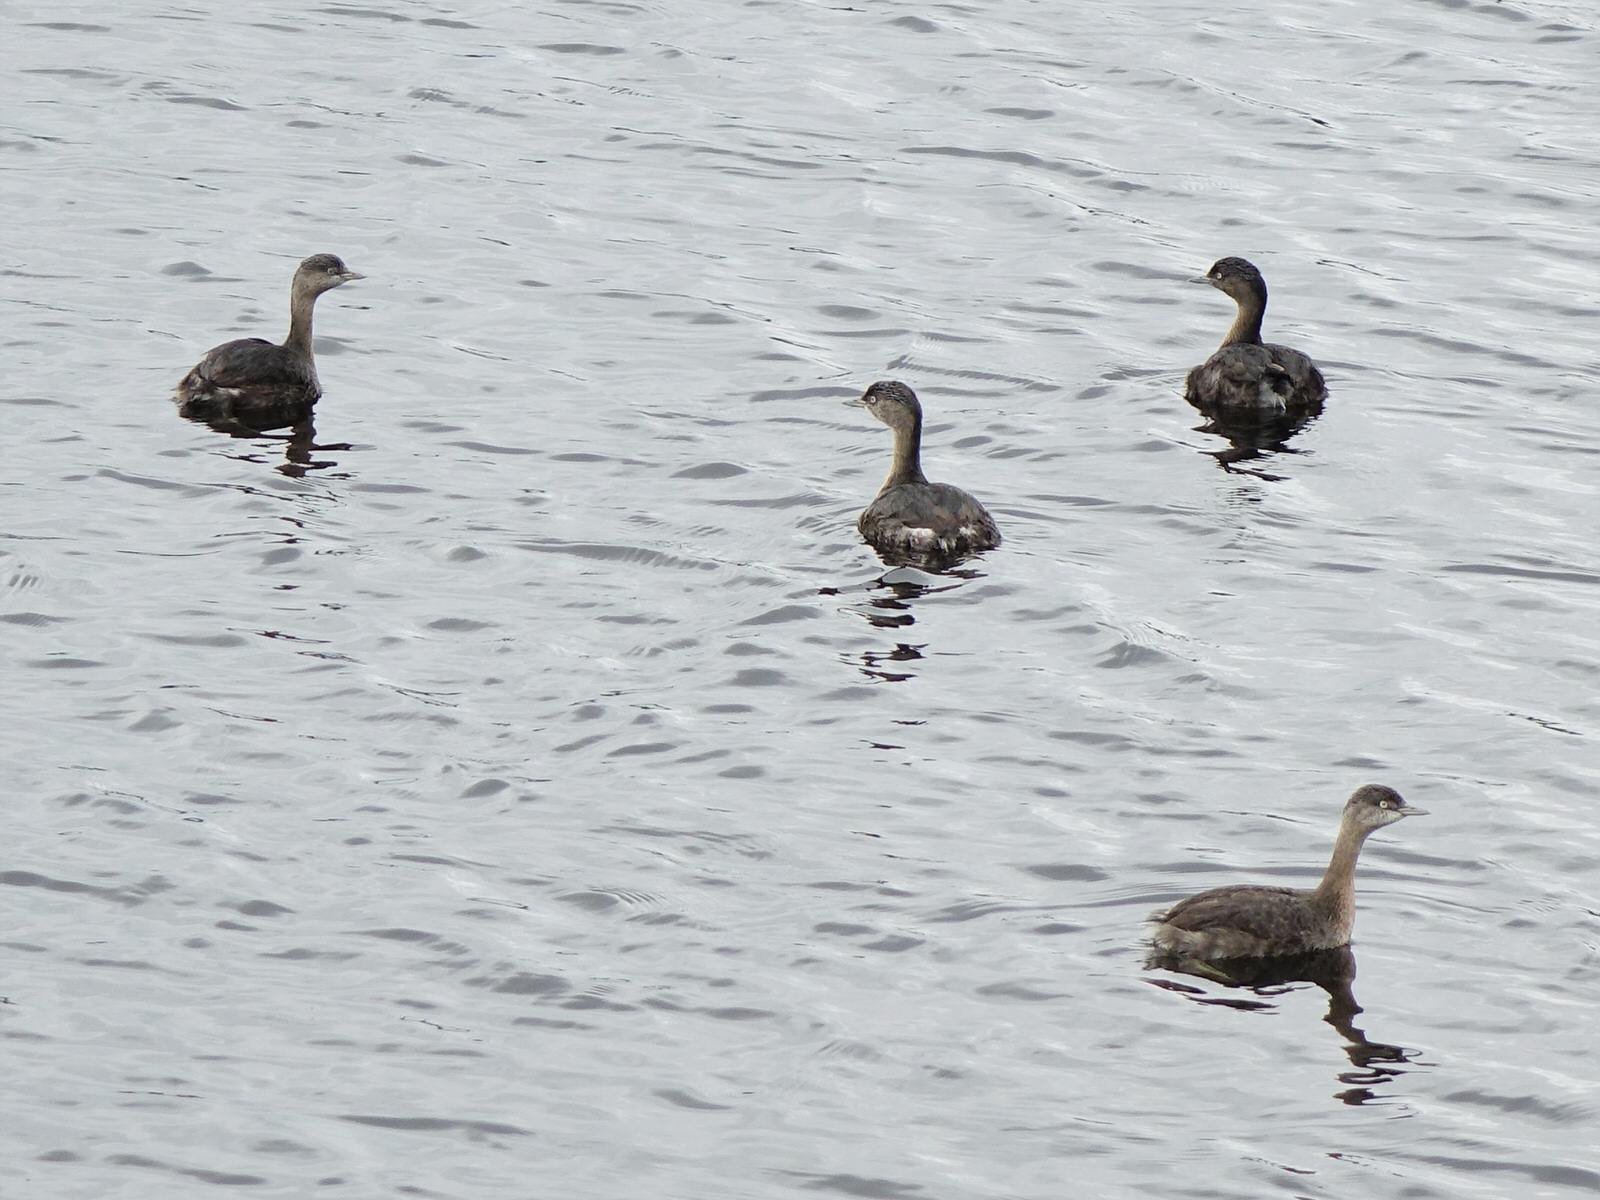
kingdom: Animalia
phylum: Chordata
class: Aves
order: Podicipediformes
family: Podicipedidae
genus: Poliocephalus
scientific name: Poliocephalus rufopectus
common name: New zealand grebe
